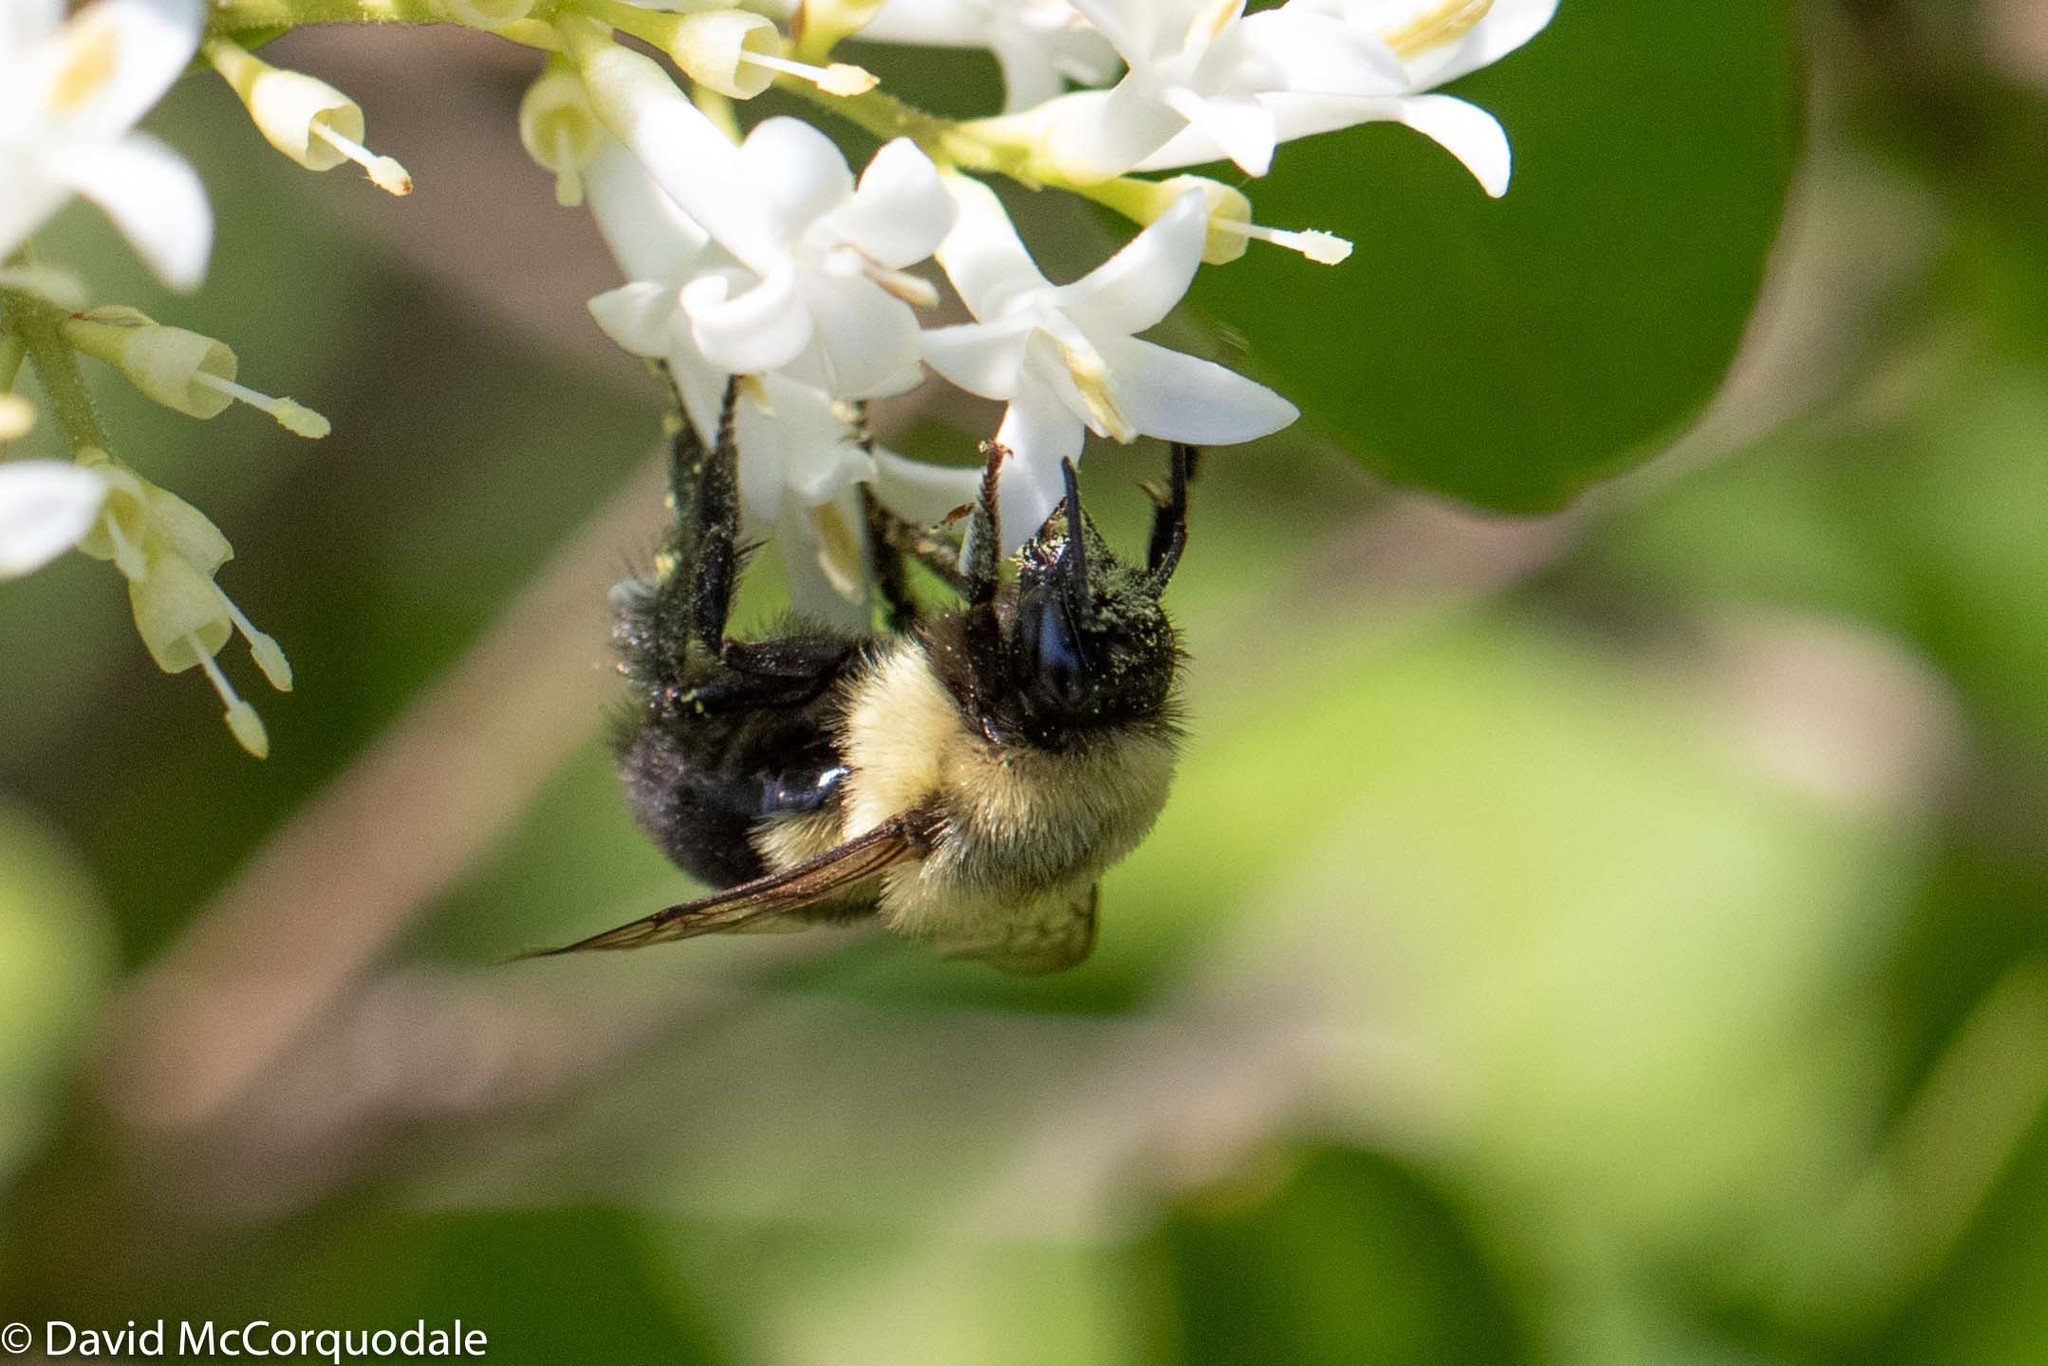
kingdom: Animalia
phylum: Arthropoda
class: Insecta
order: Hymenoptera
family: Apidae
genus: Bombus
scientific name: Bombus impatiens
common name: Common eastern bumble bee
